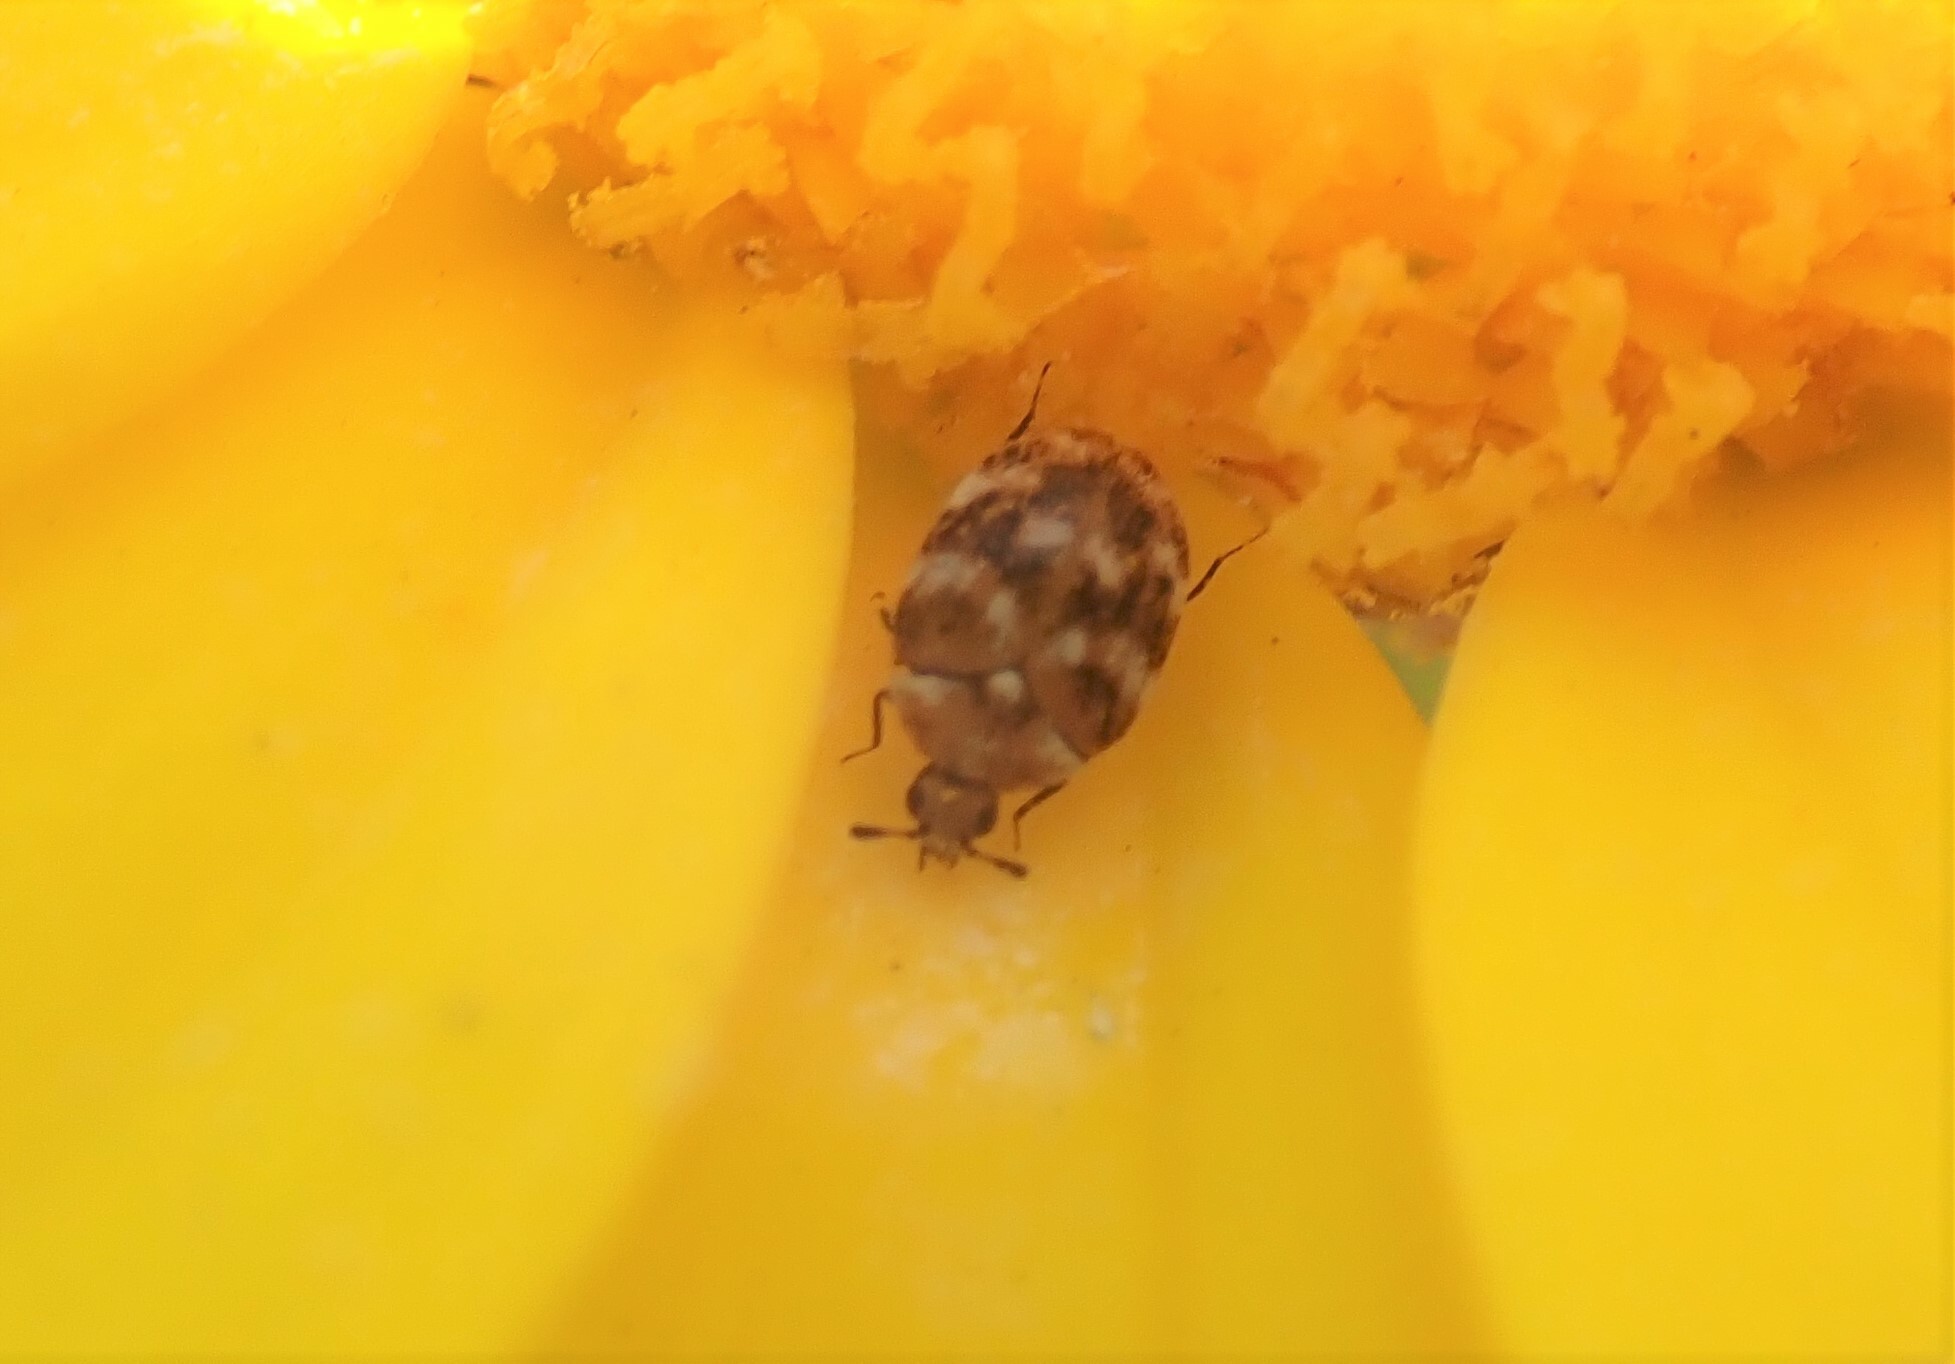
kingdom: Animalia
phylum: Arthropoda
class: Insecta
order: Coleoptera
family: Dermestidae
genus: Anthrenus
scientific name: Anthrenus verbasci
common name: Varied carpet beetle
